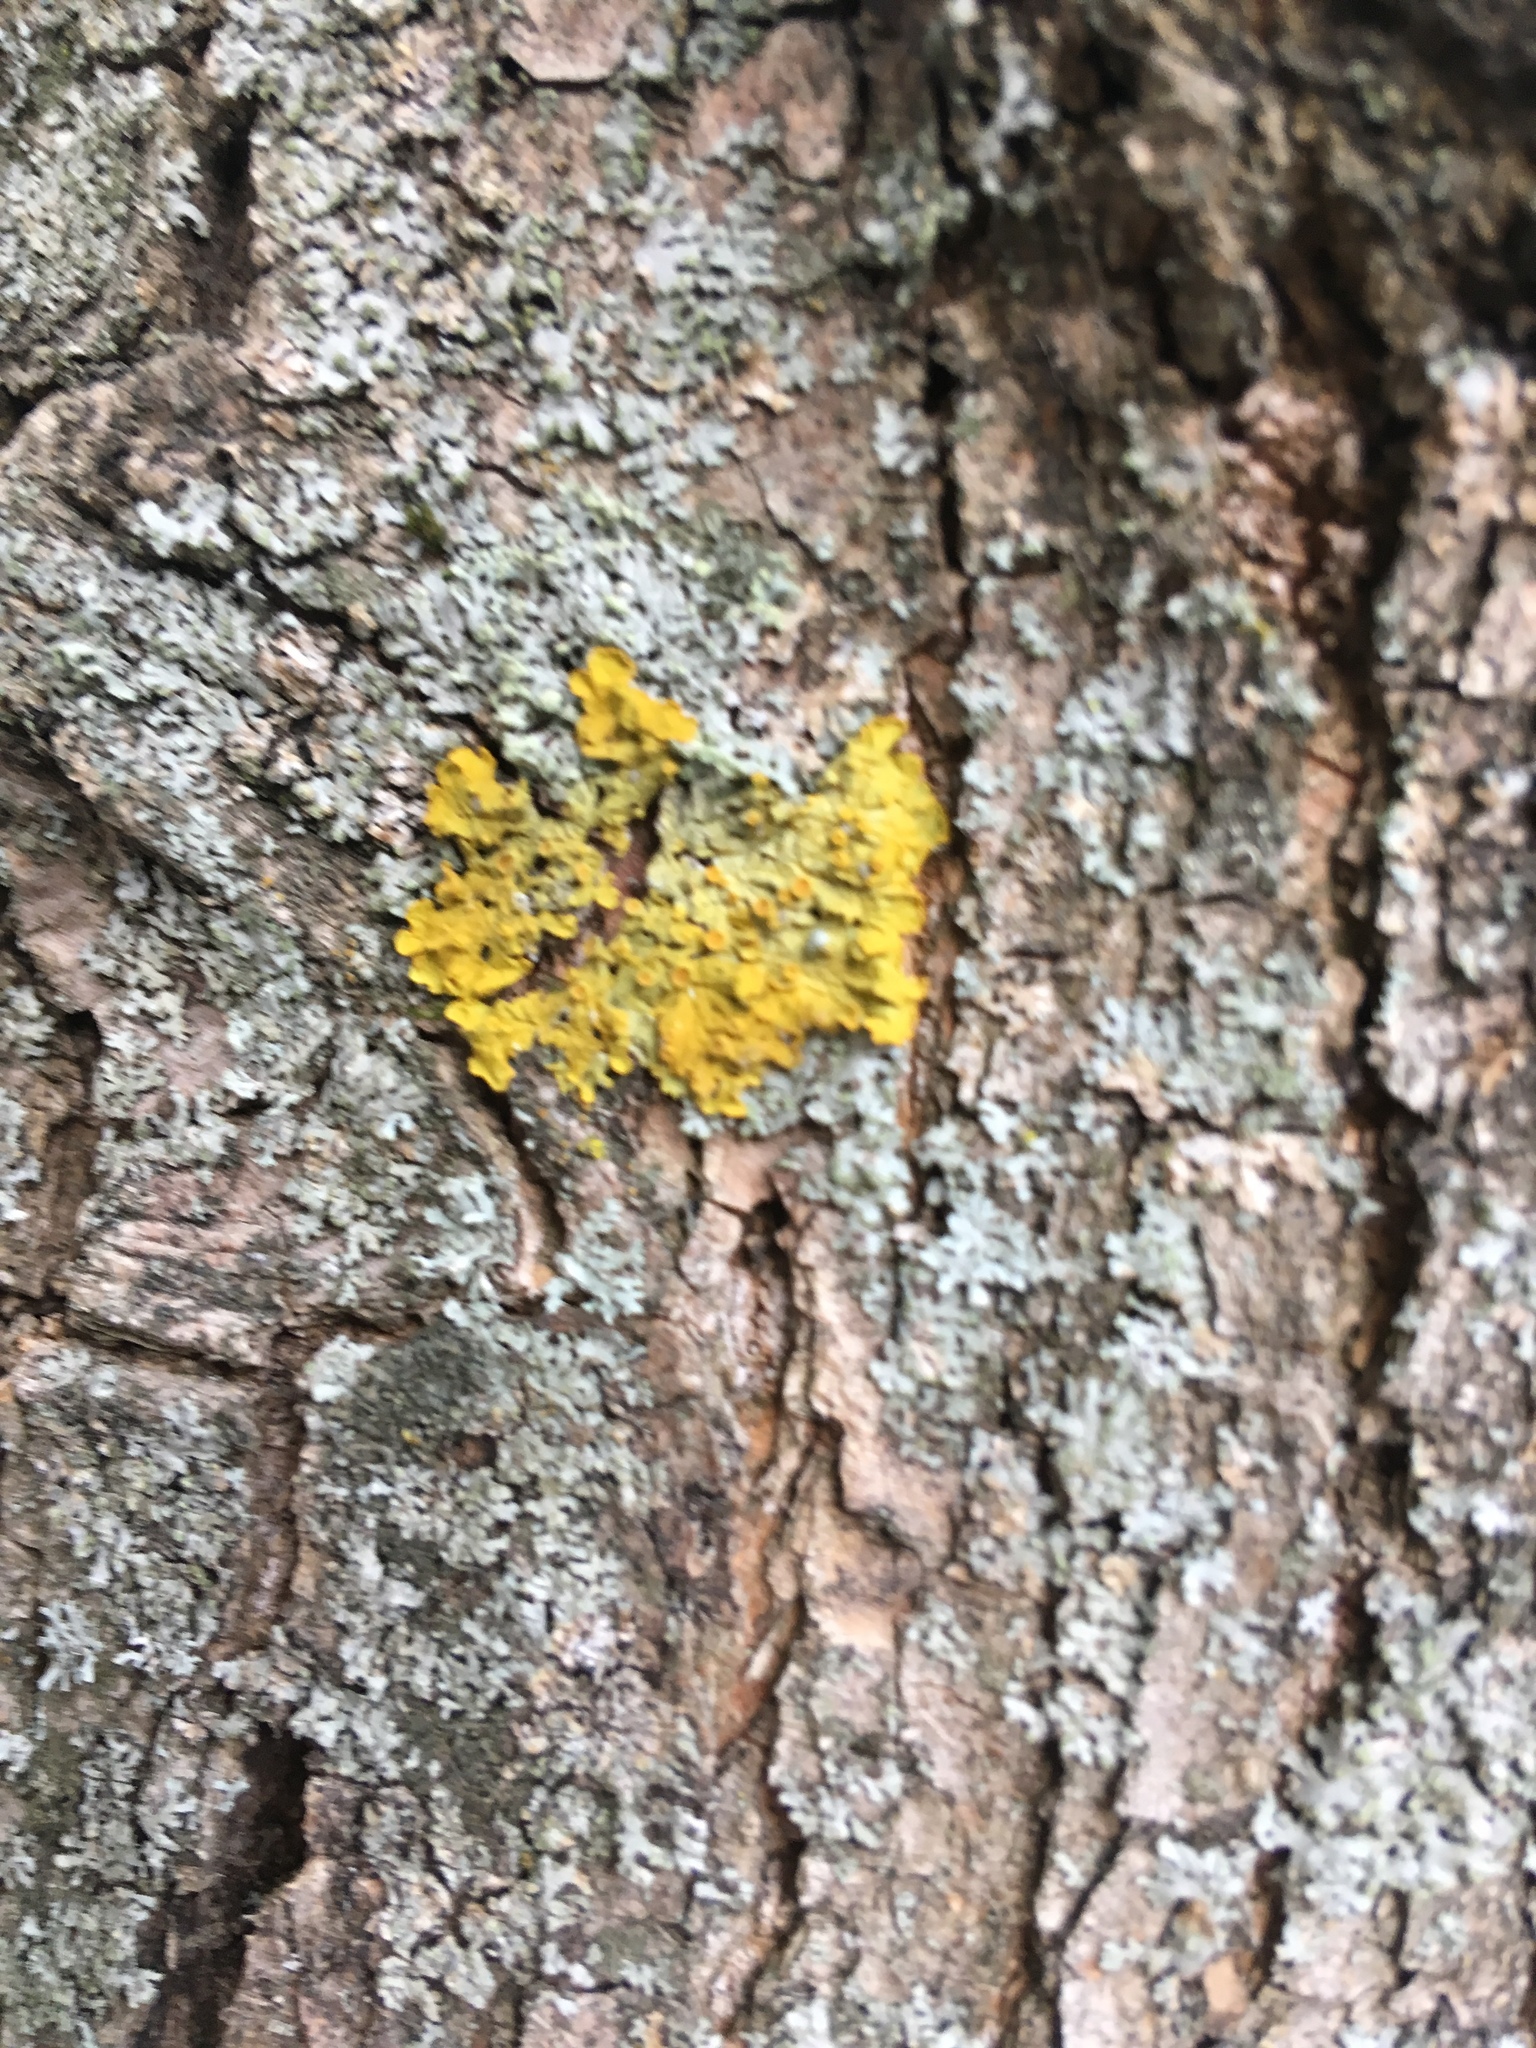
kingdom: Fungi
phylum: Ascomycota
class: Lecanoromycetes
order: Teloschistales
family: Teloschistaceae
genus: Xanthoria
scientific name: Xanthoria parietina
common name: Common orange lichen
